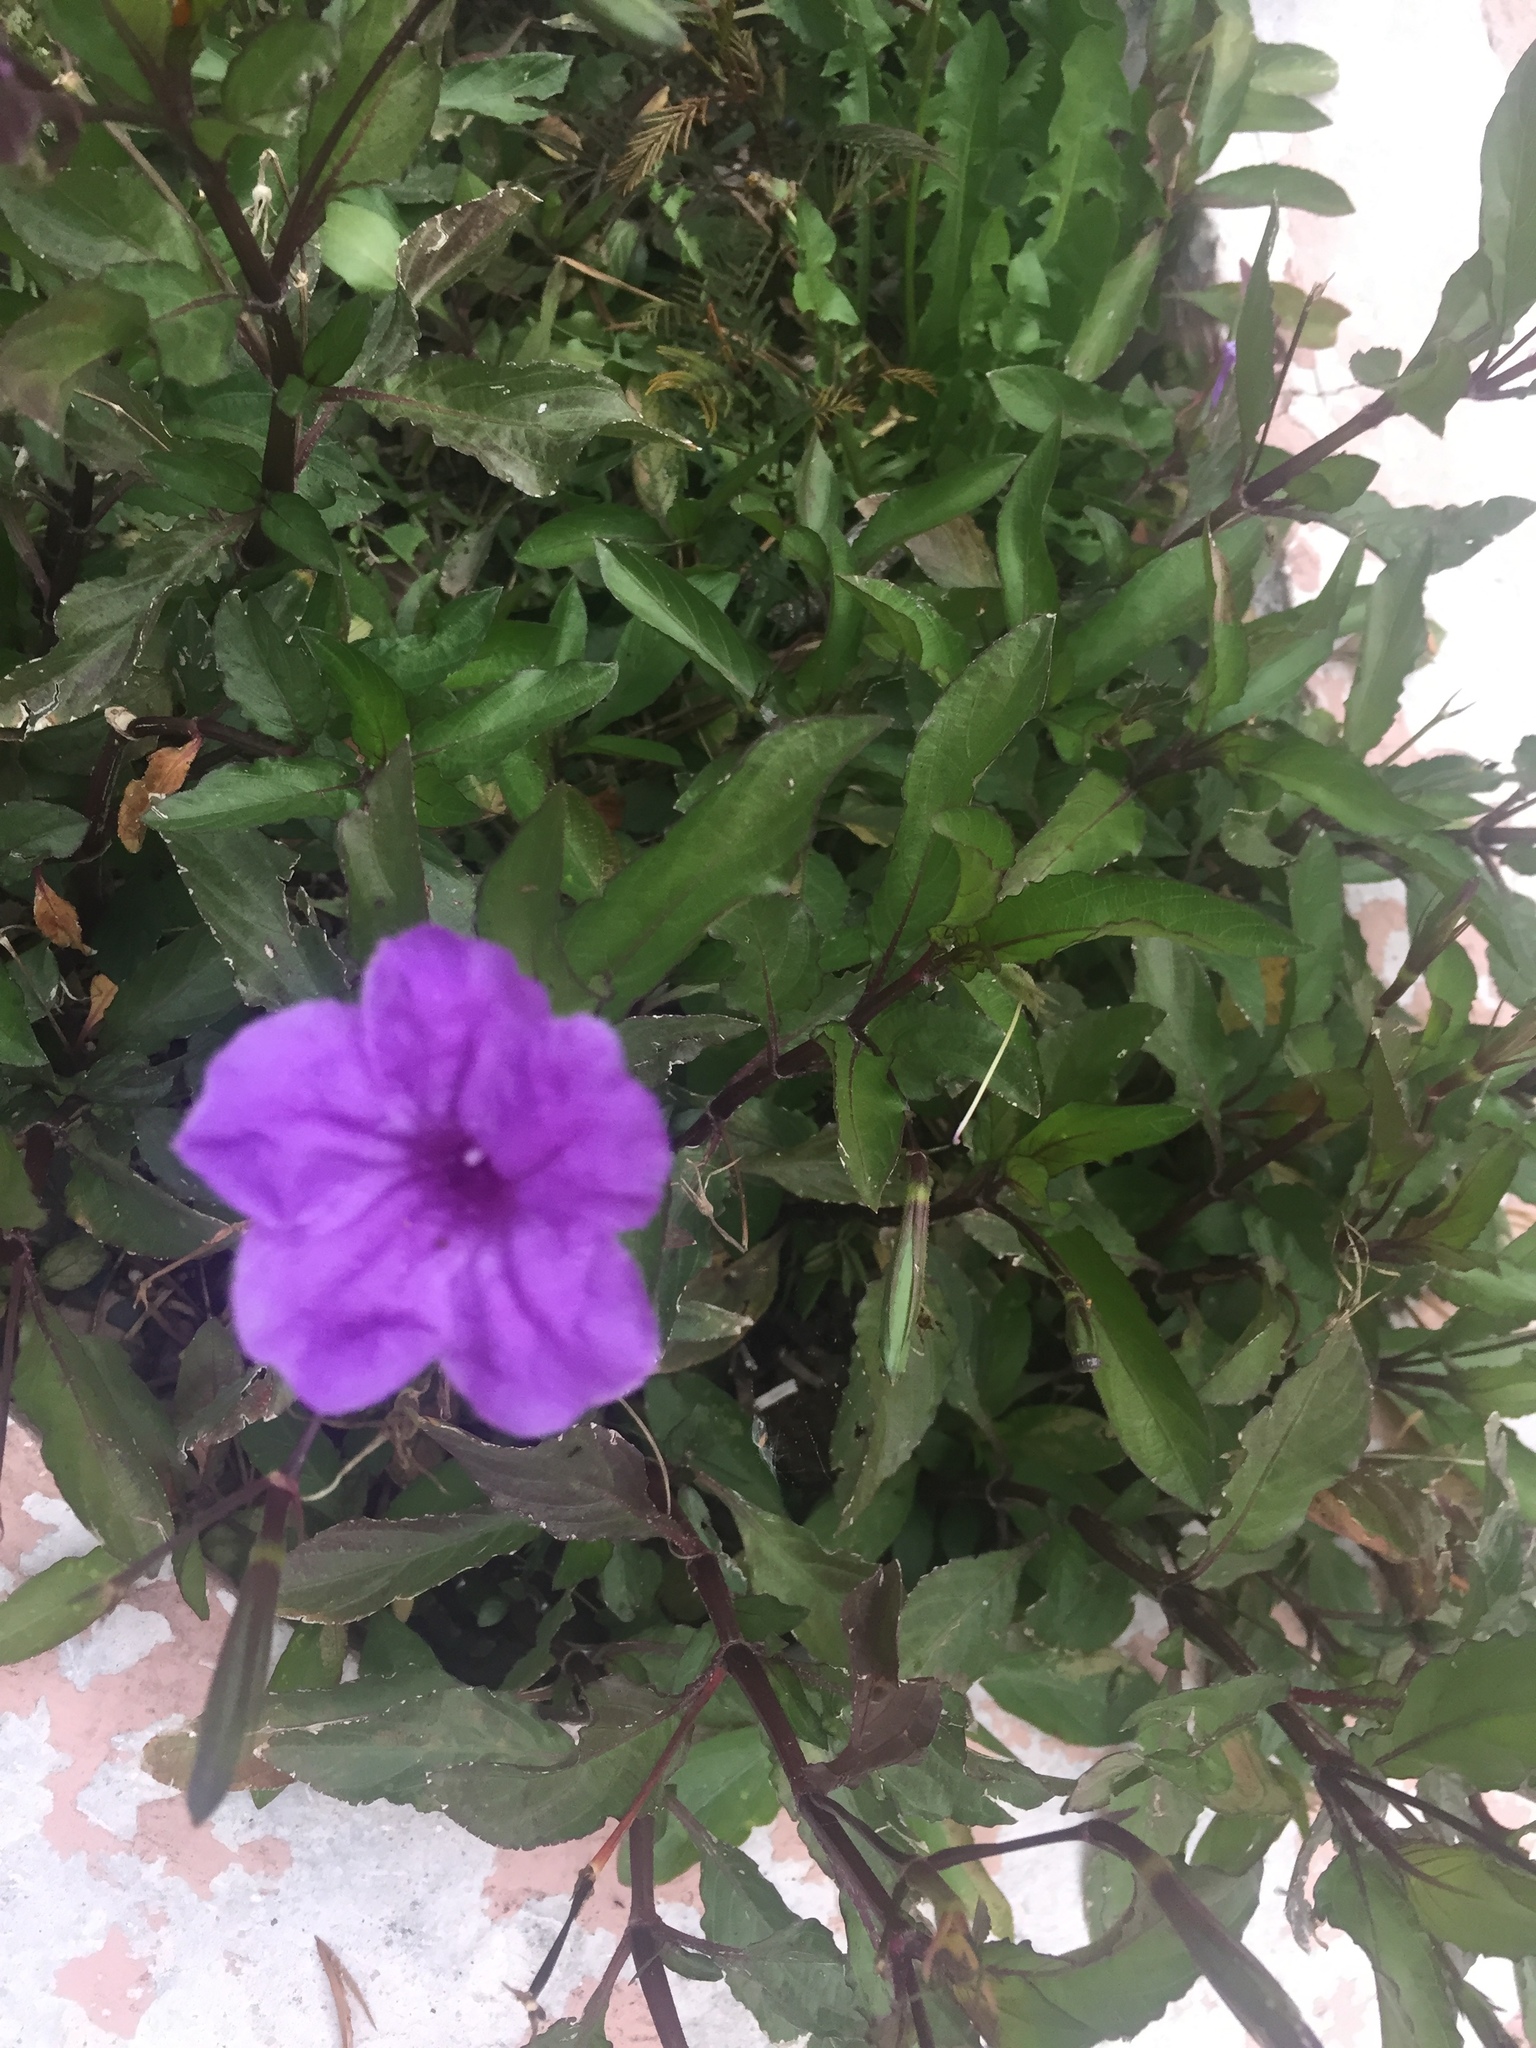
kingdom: Plantae
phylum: Tracheophyta
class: Magnoliopsida
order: Lamiales
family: Acanthaceae
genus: Ruellia
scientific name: Ruellia simplex
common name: Softseed wild petunia
